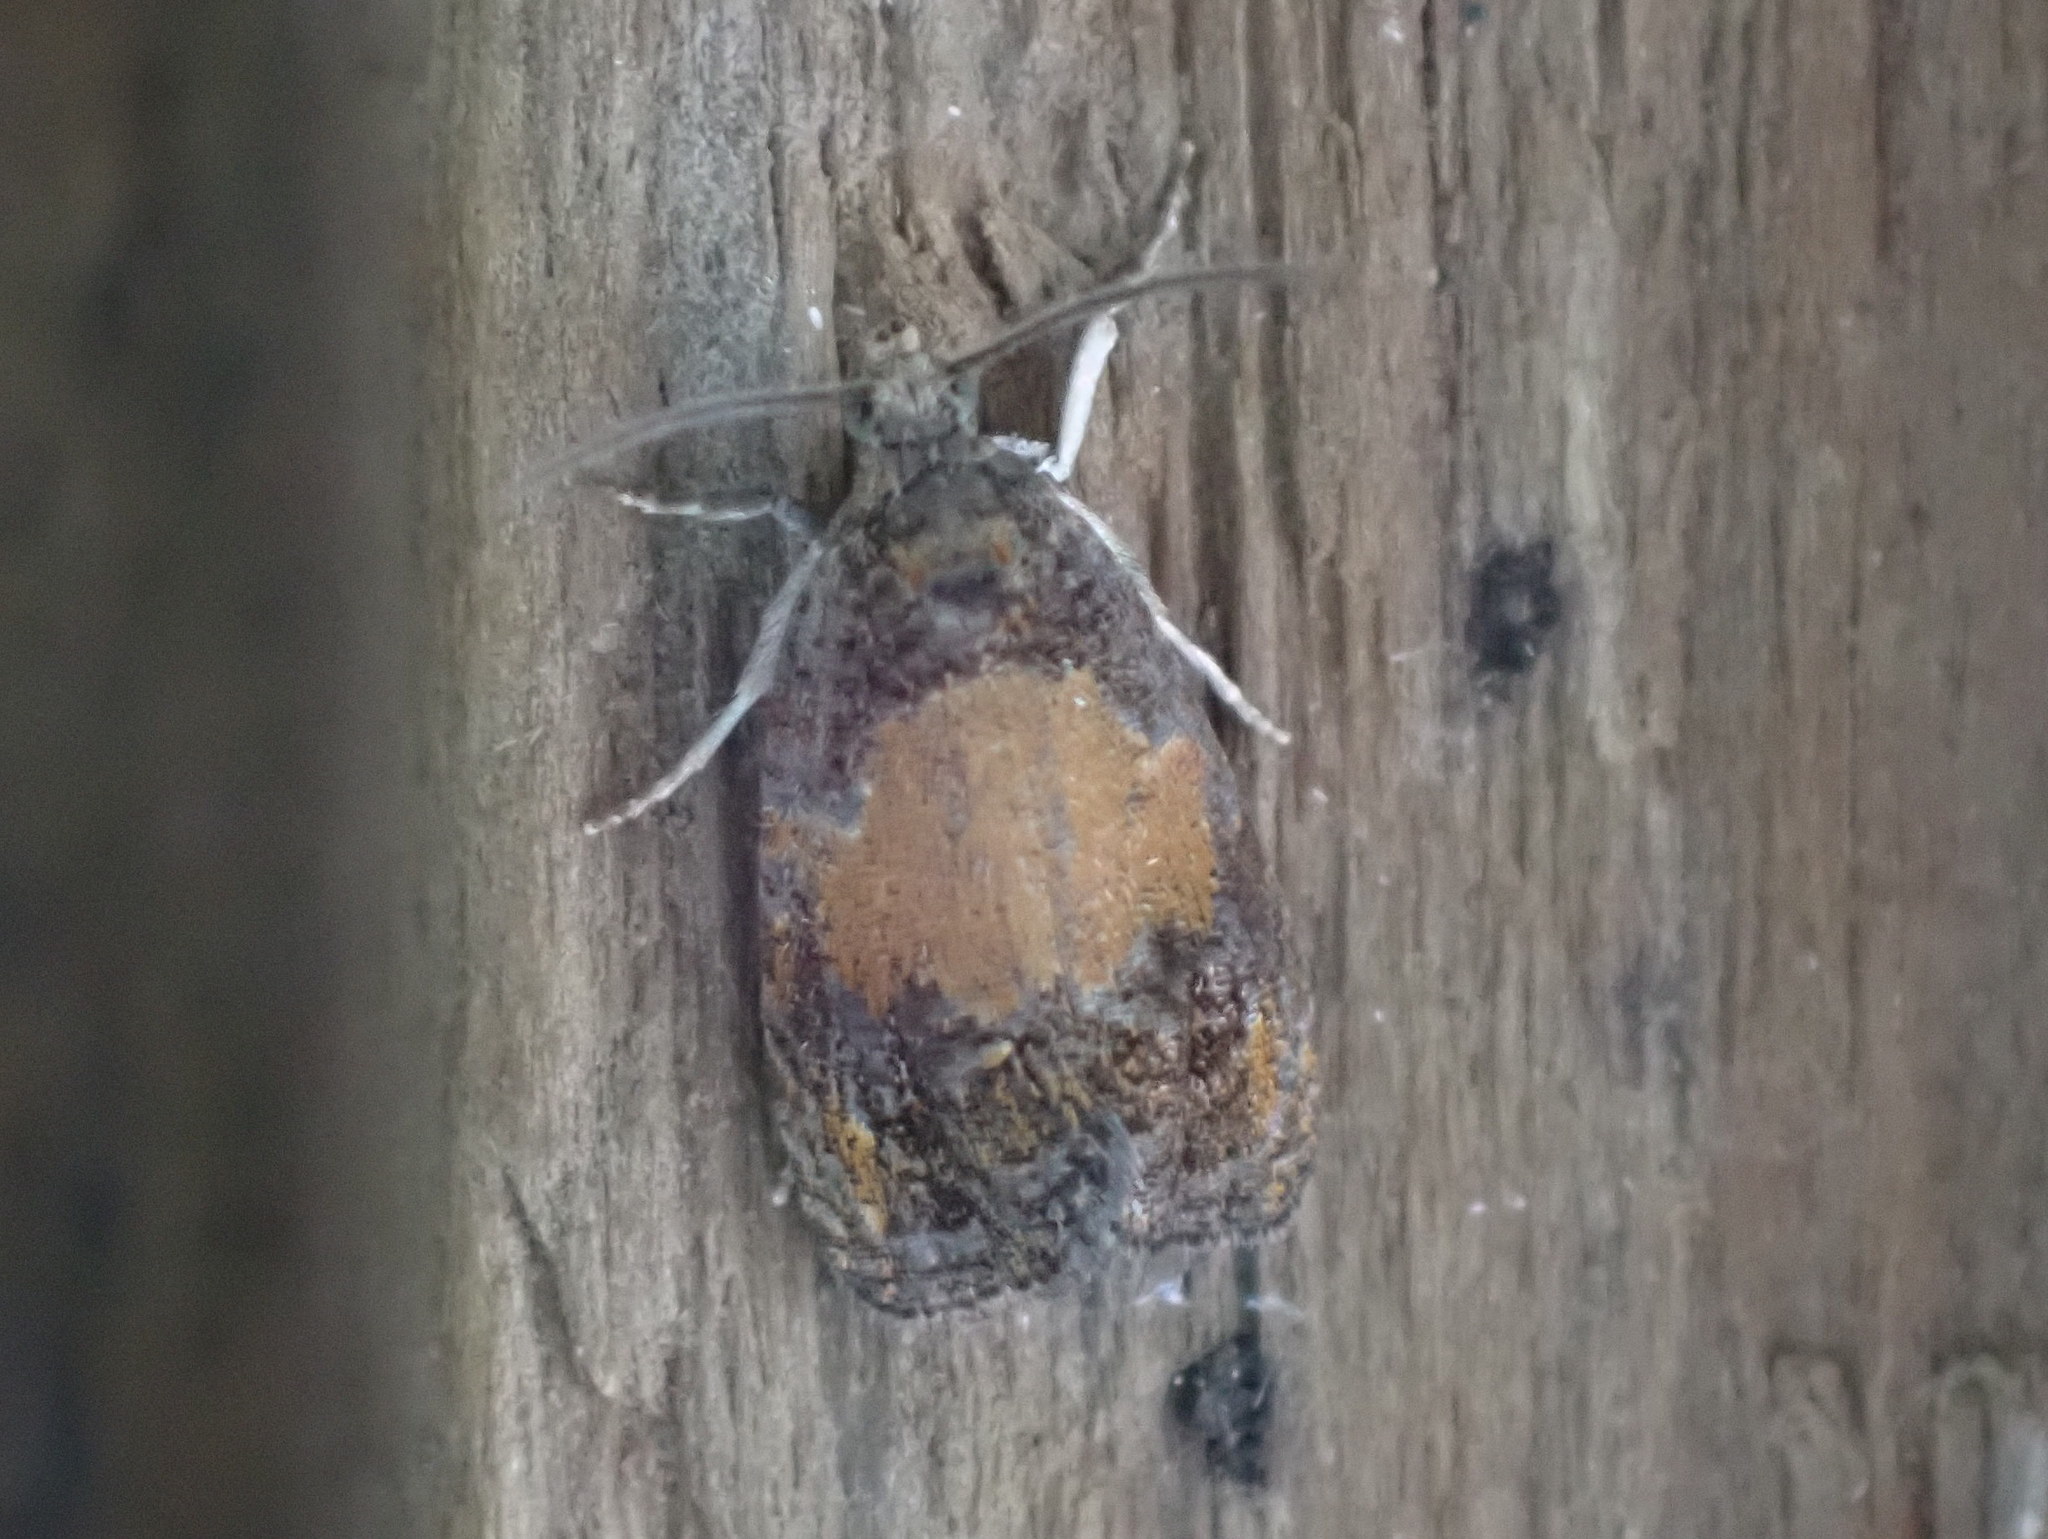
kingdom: Animalia
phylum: Arthropoda
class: Insecta
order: Lepidoptera
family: Tortricidae
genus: Olethreutes
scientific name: Olethreutes osmundana
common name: Fern olethreutes moth
